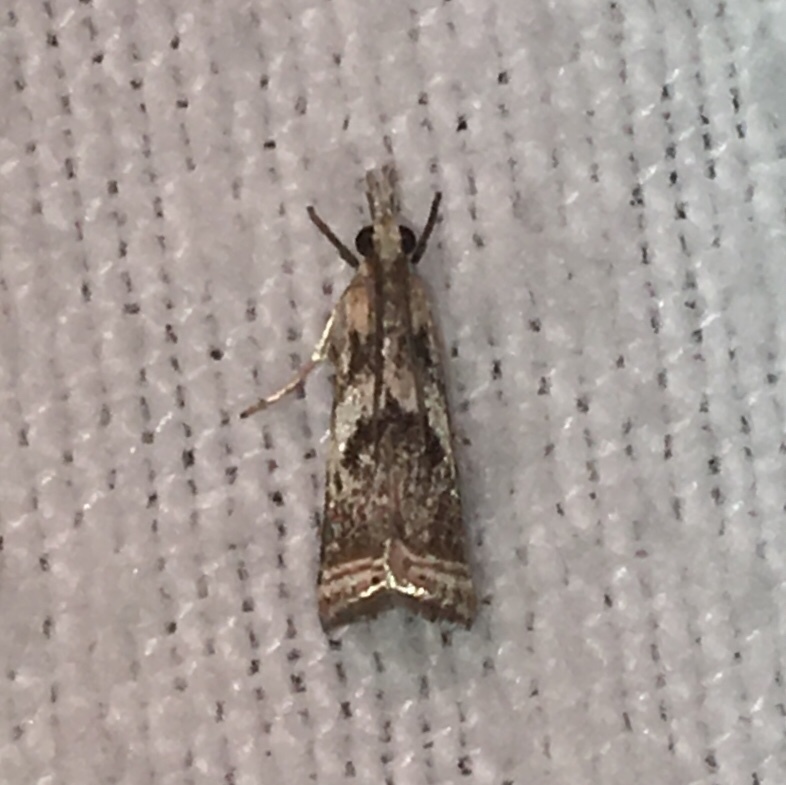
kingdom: Animalia
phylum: Arthropoda
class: Insecta
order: Lepidoptera
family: Crambidae
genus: Microcrambus
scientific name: Microcrambus elegans
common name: Elegant grass-veneer
